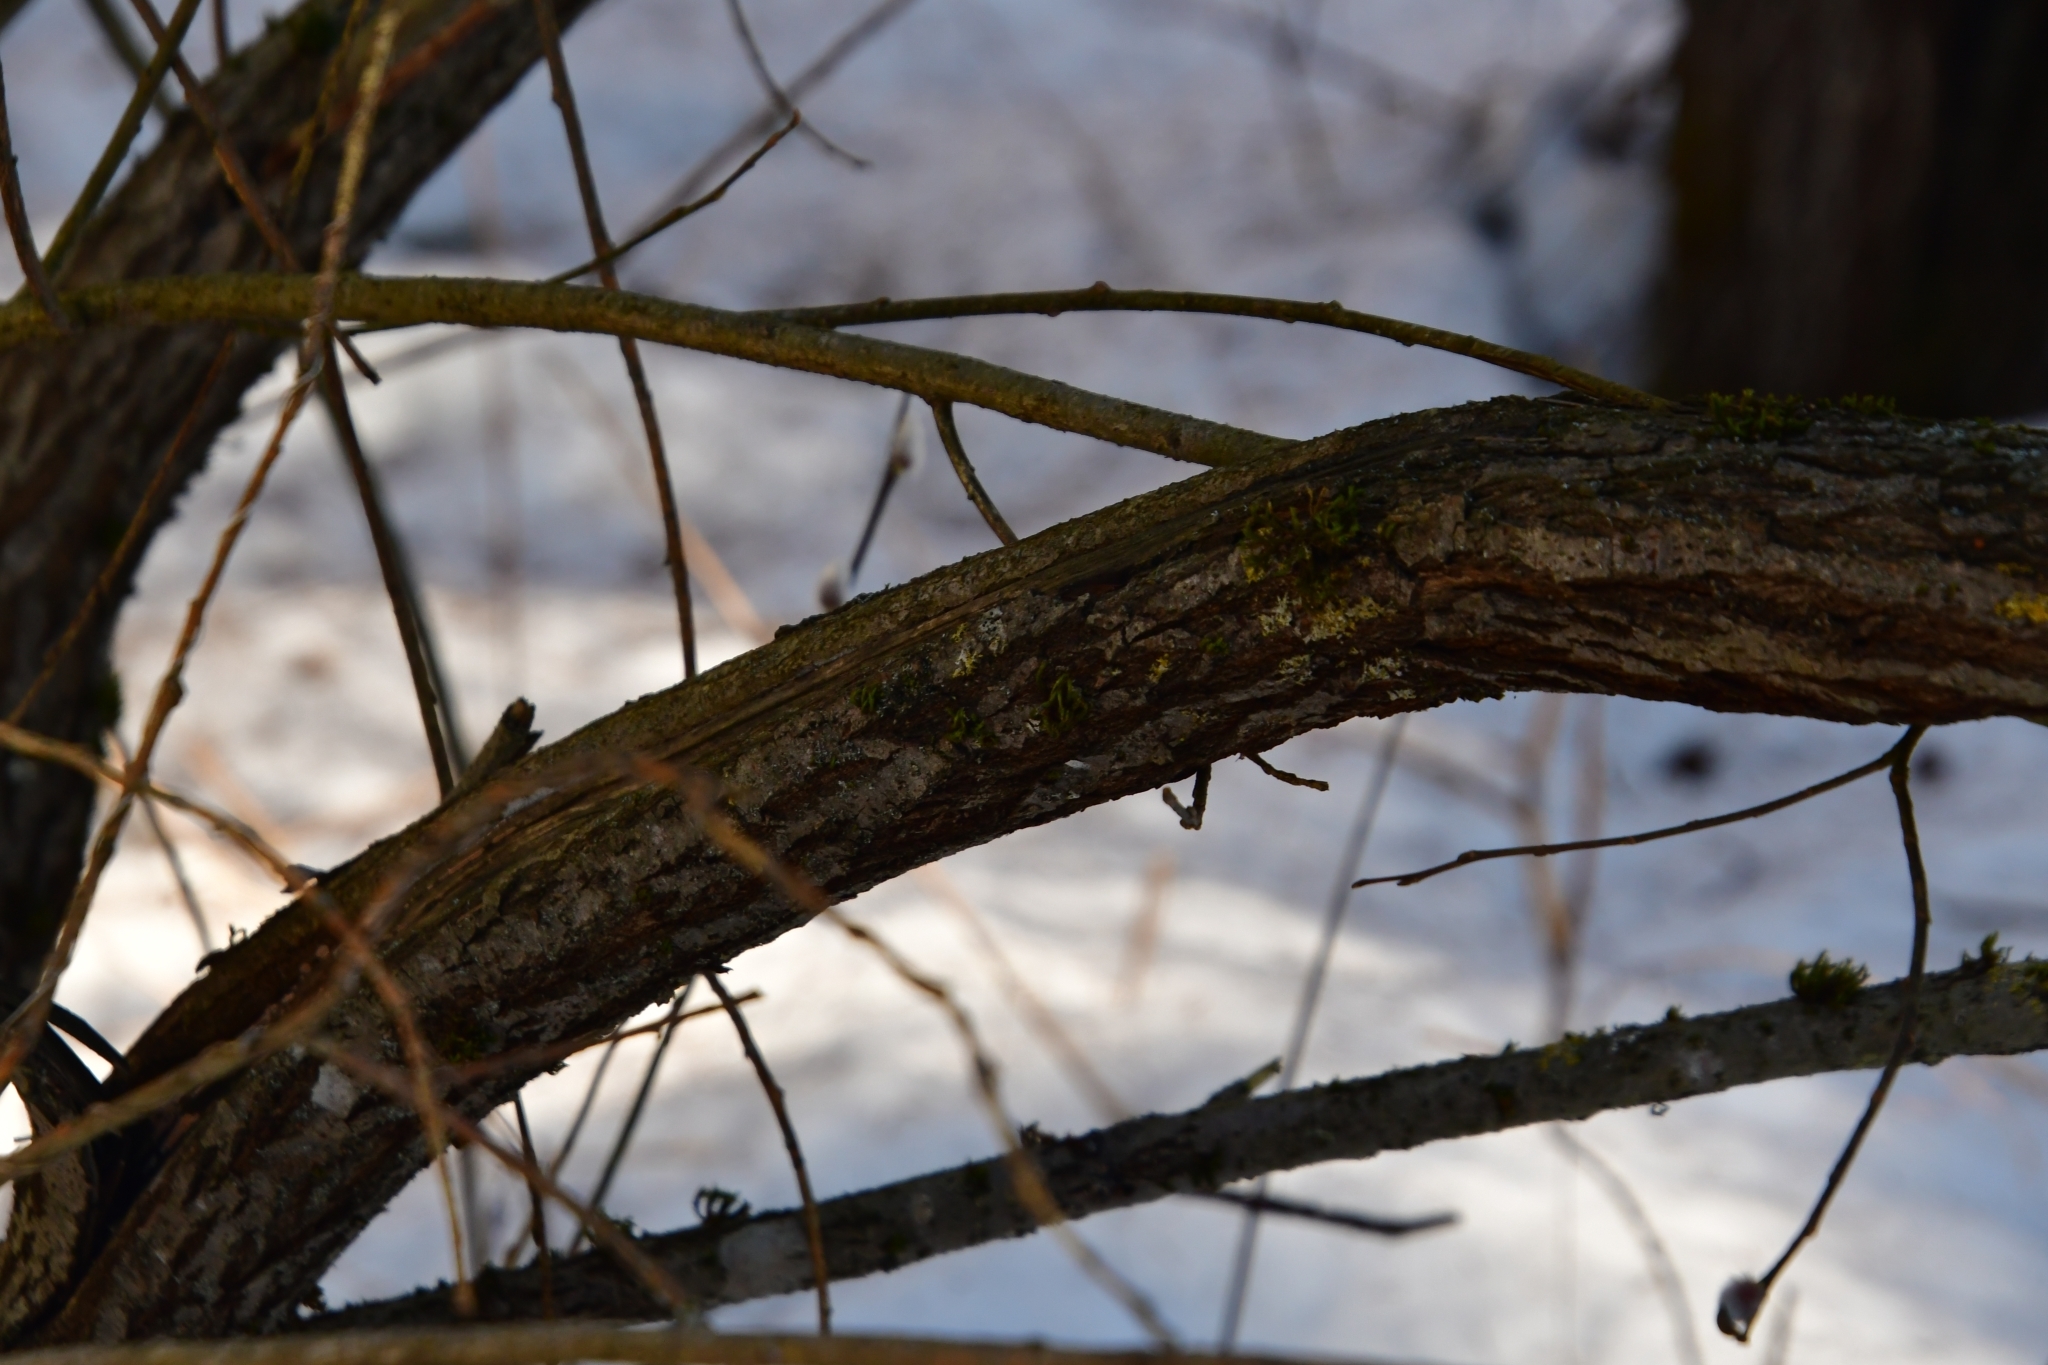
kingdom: Plantae
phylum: Tracheophyta
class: Magnoliopsida
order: Malpighiales
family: Salicaceae
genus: Salix
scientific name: Salix caprea
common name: Goat willow
